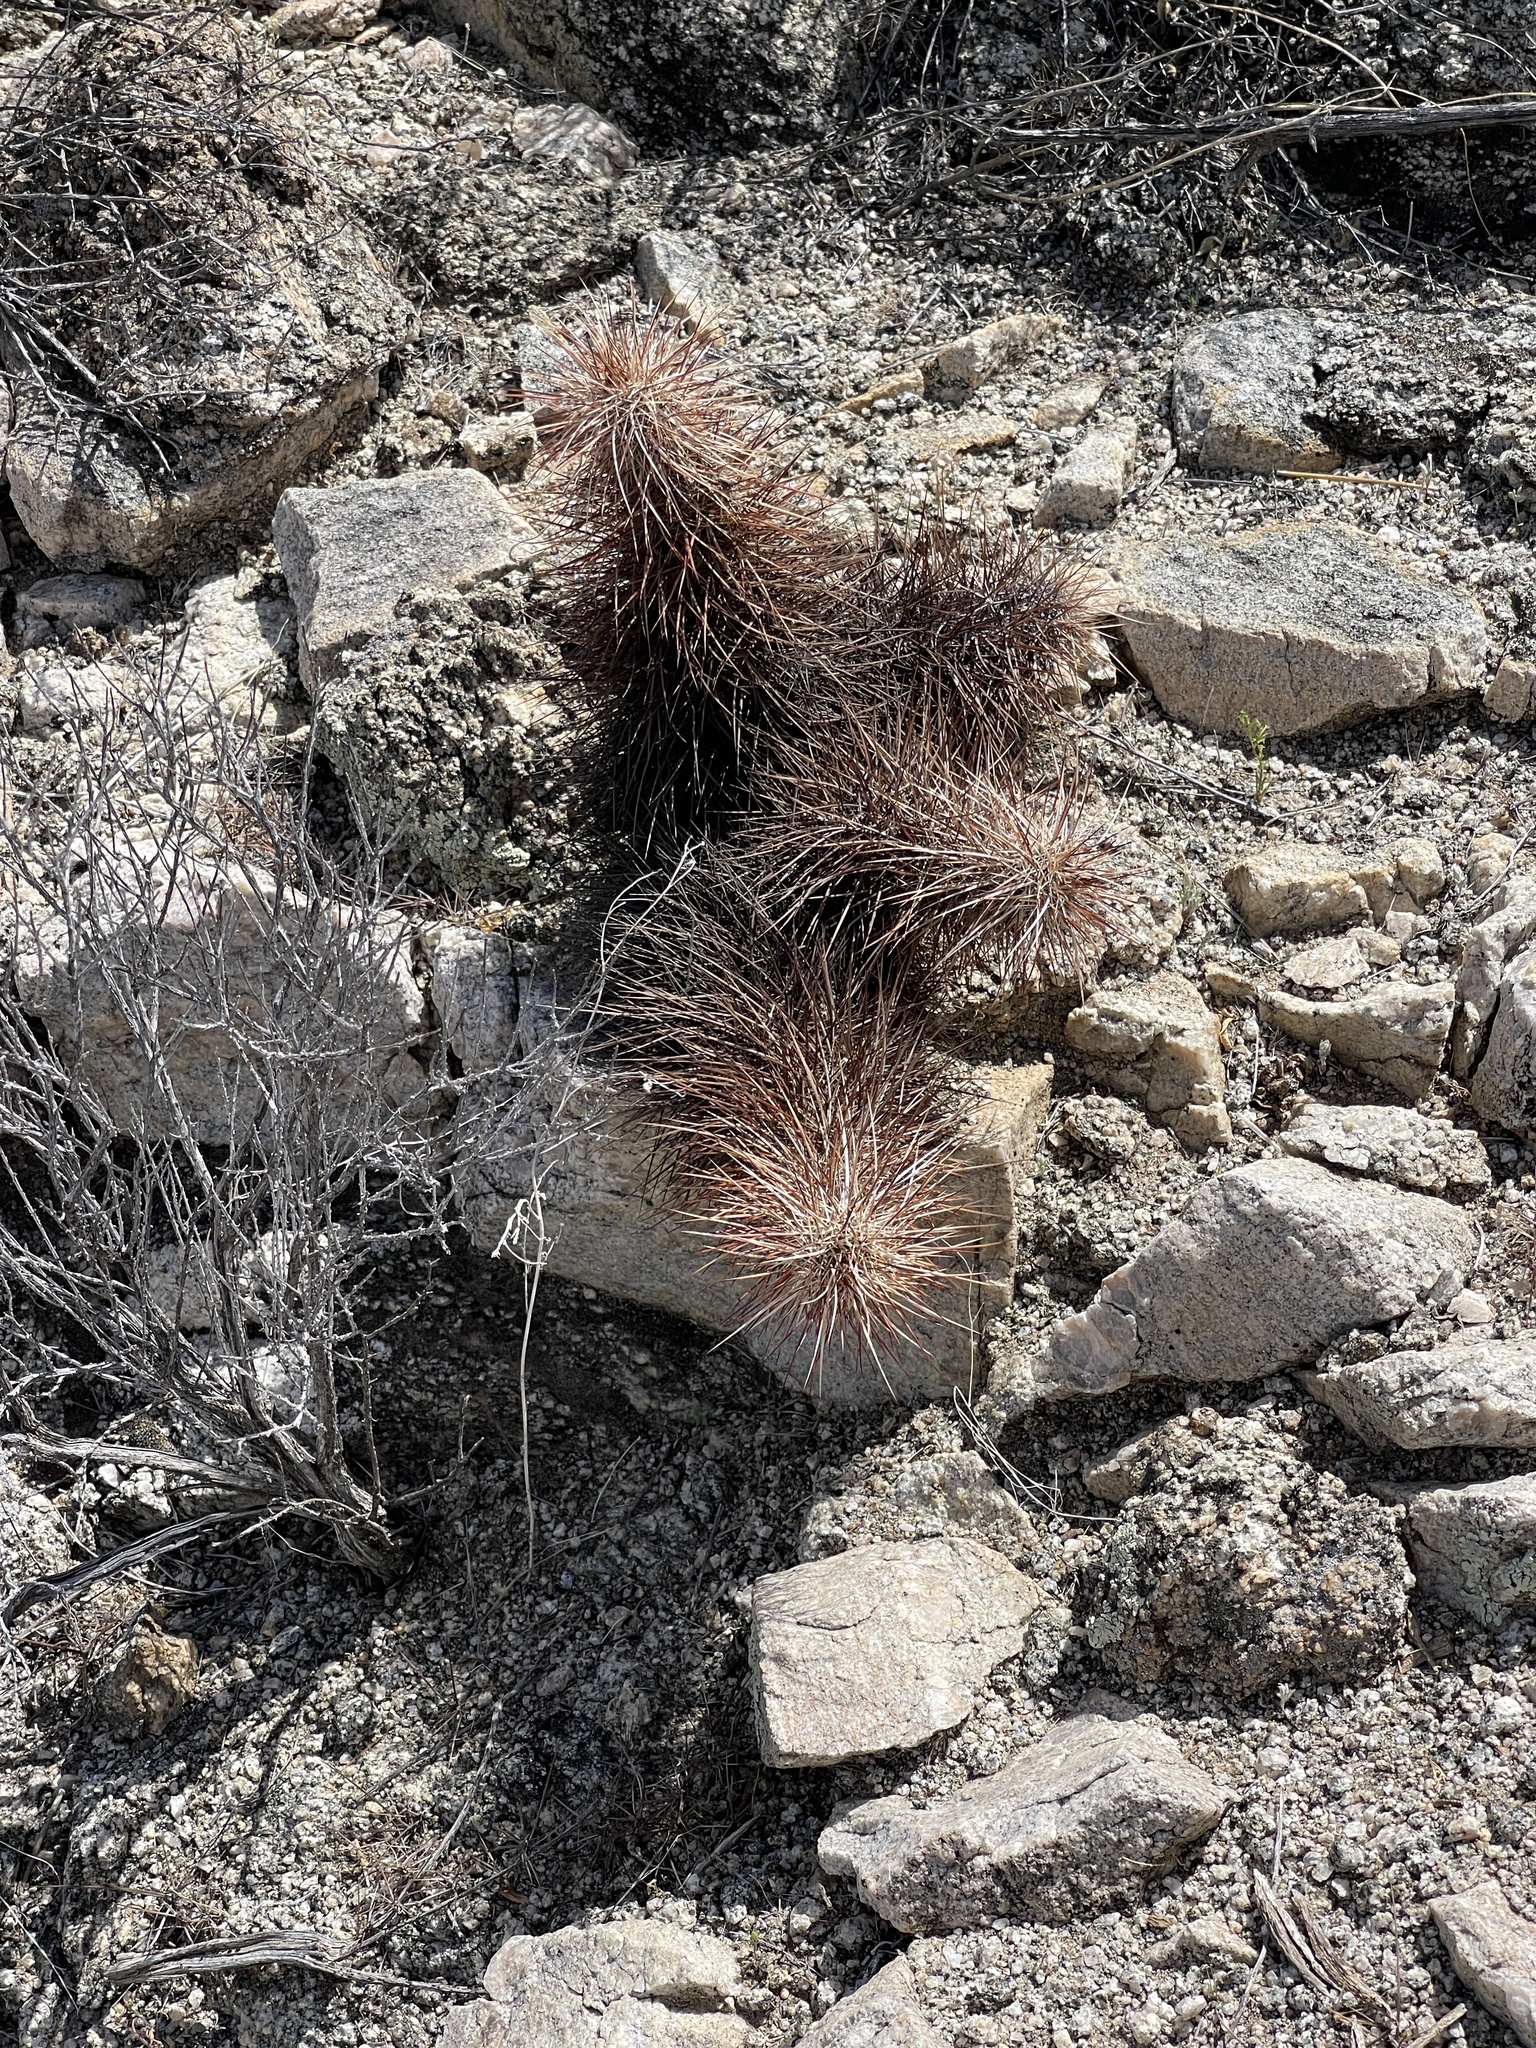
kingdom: Plantae
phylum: Tracheophyta
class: Magnoliopsida
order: Caryophyllales
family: Cactaceae
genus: Echinocereus
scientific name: Echinocereus engelmannii
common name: Engelmann's hedgehog cactus
